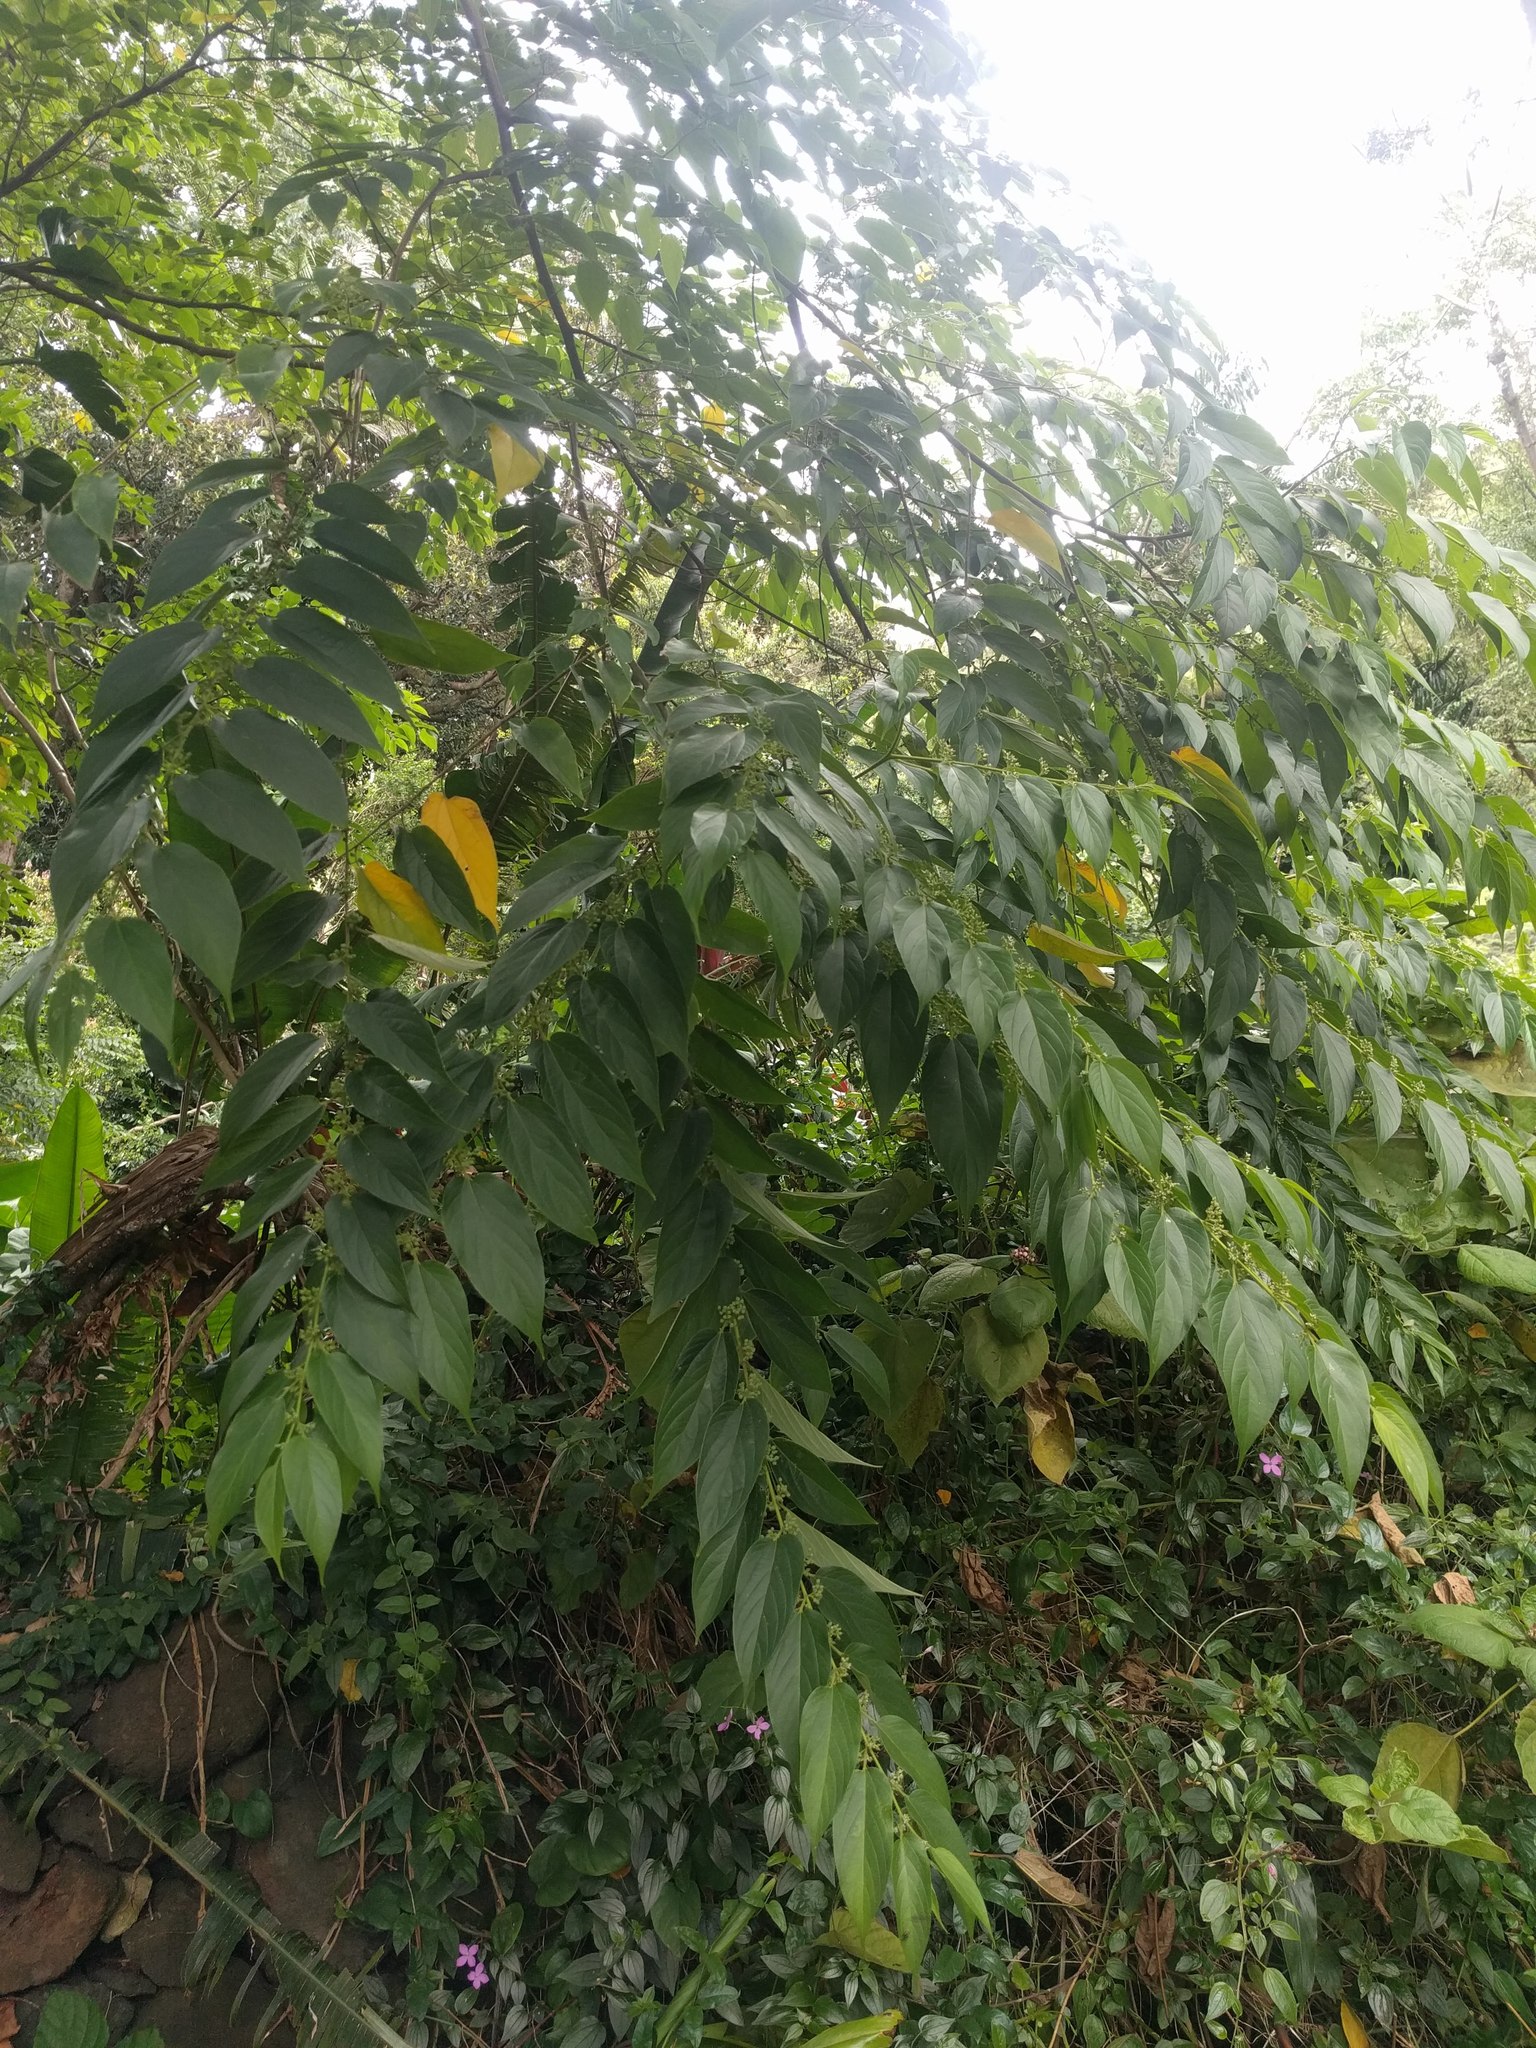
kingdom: Plantae
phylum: Tracheophyta
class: Magnoliopsida
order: Rosales
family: Cannabaceae
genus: Trema
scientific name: Trema orientale
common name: Indian charcoal tree
